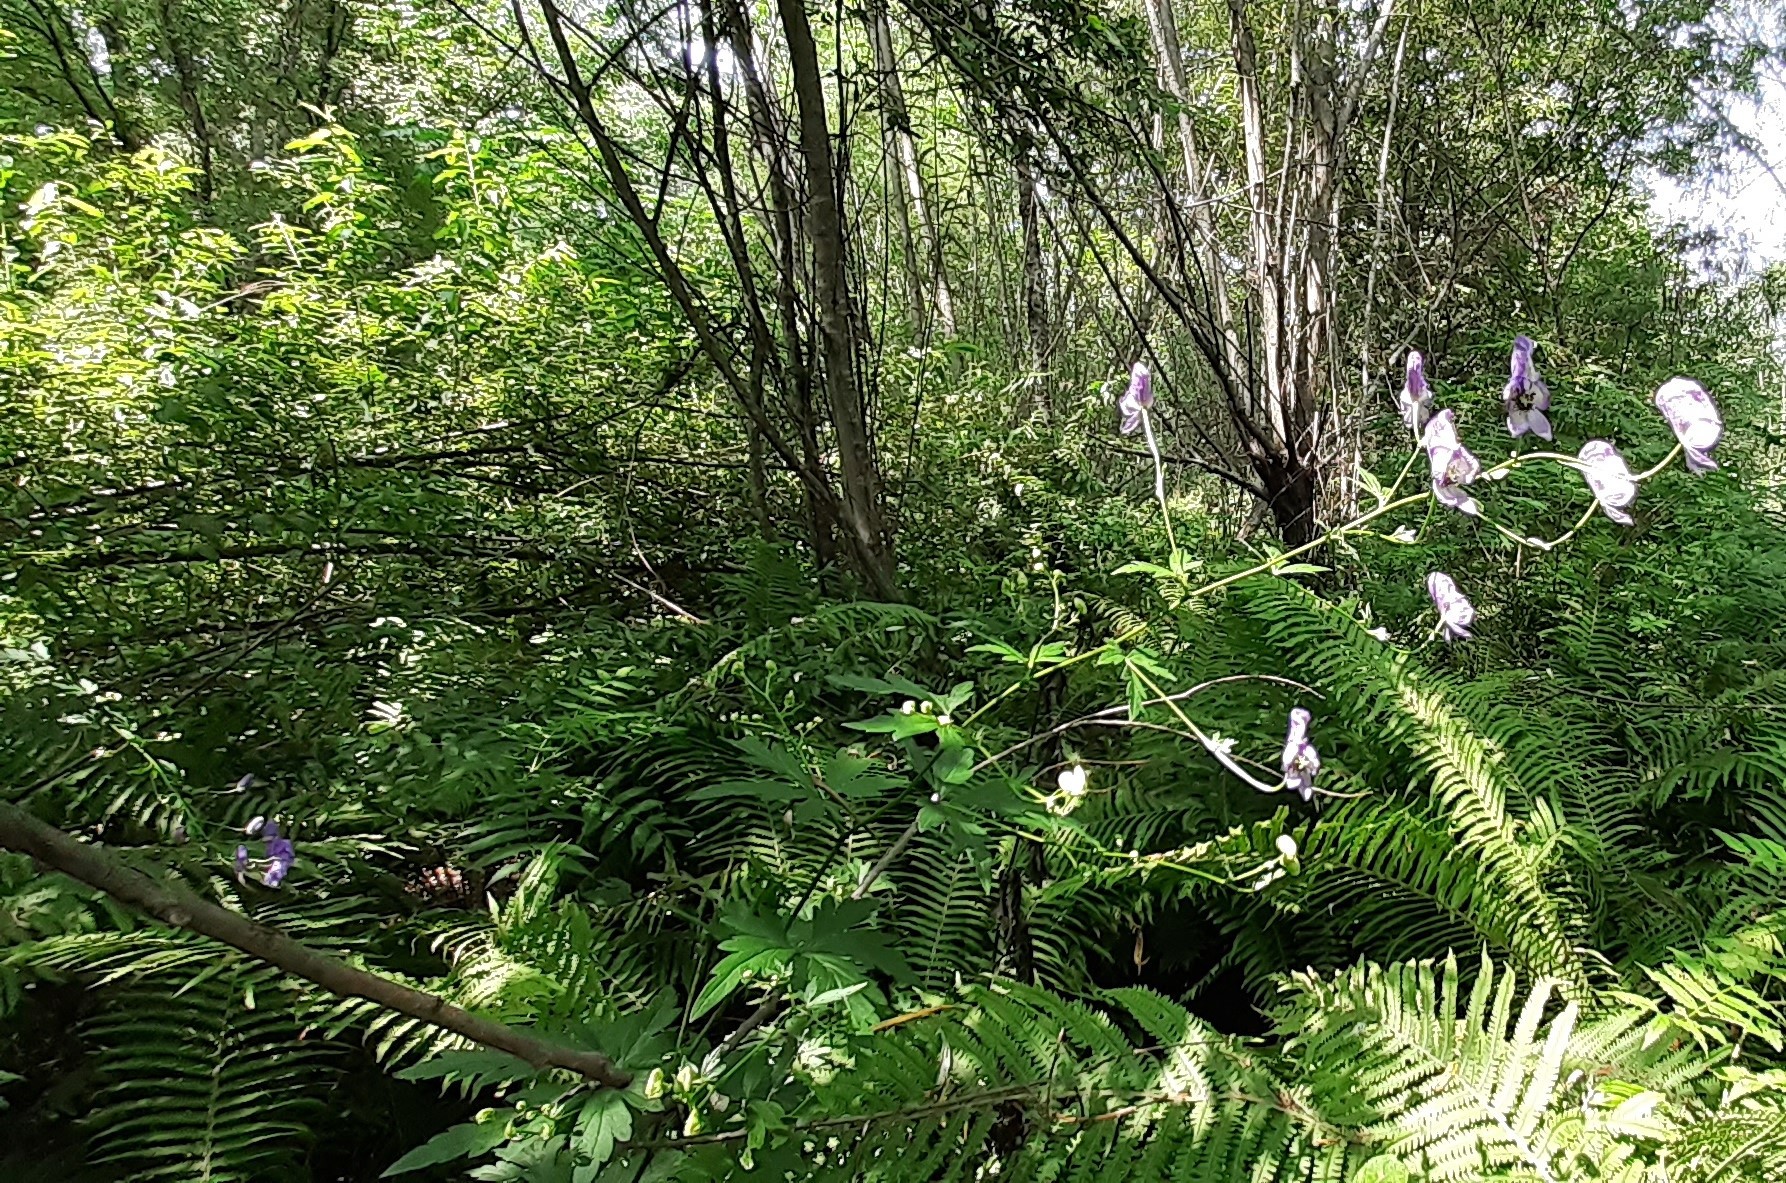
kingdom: Plantae
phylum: Tracheophyta
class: Magnoliopsida
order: Ranunculales
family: Ranunculaceae
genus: Aconitum
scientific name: Aconitum volubile
